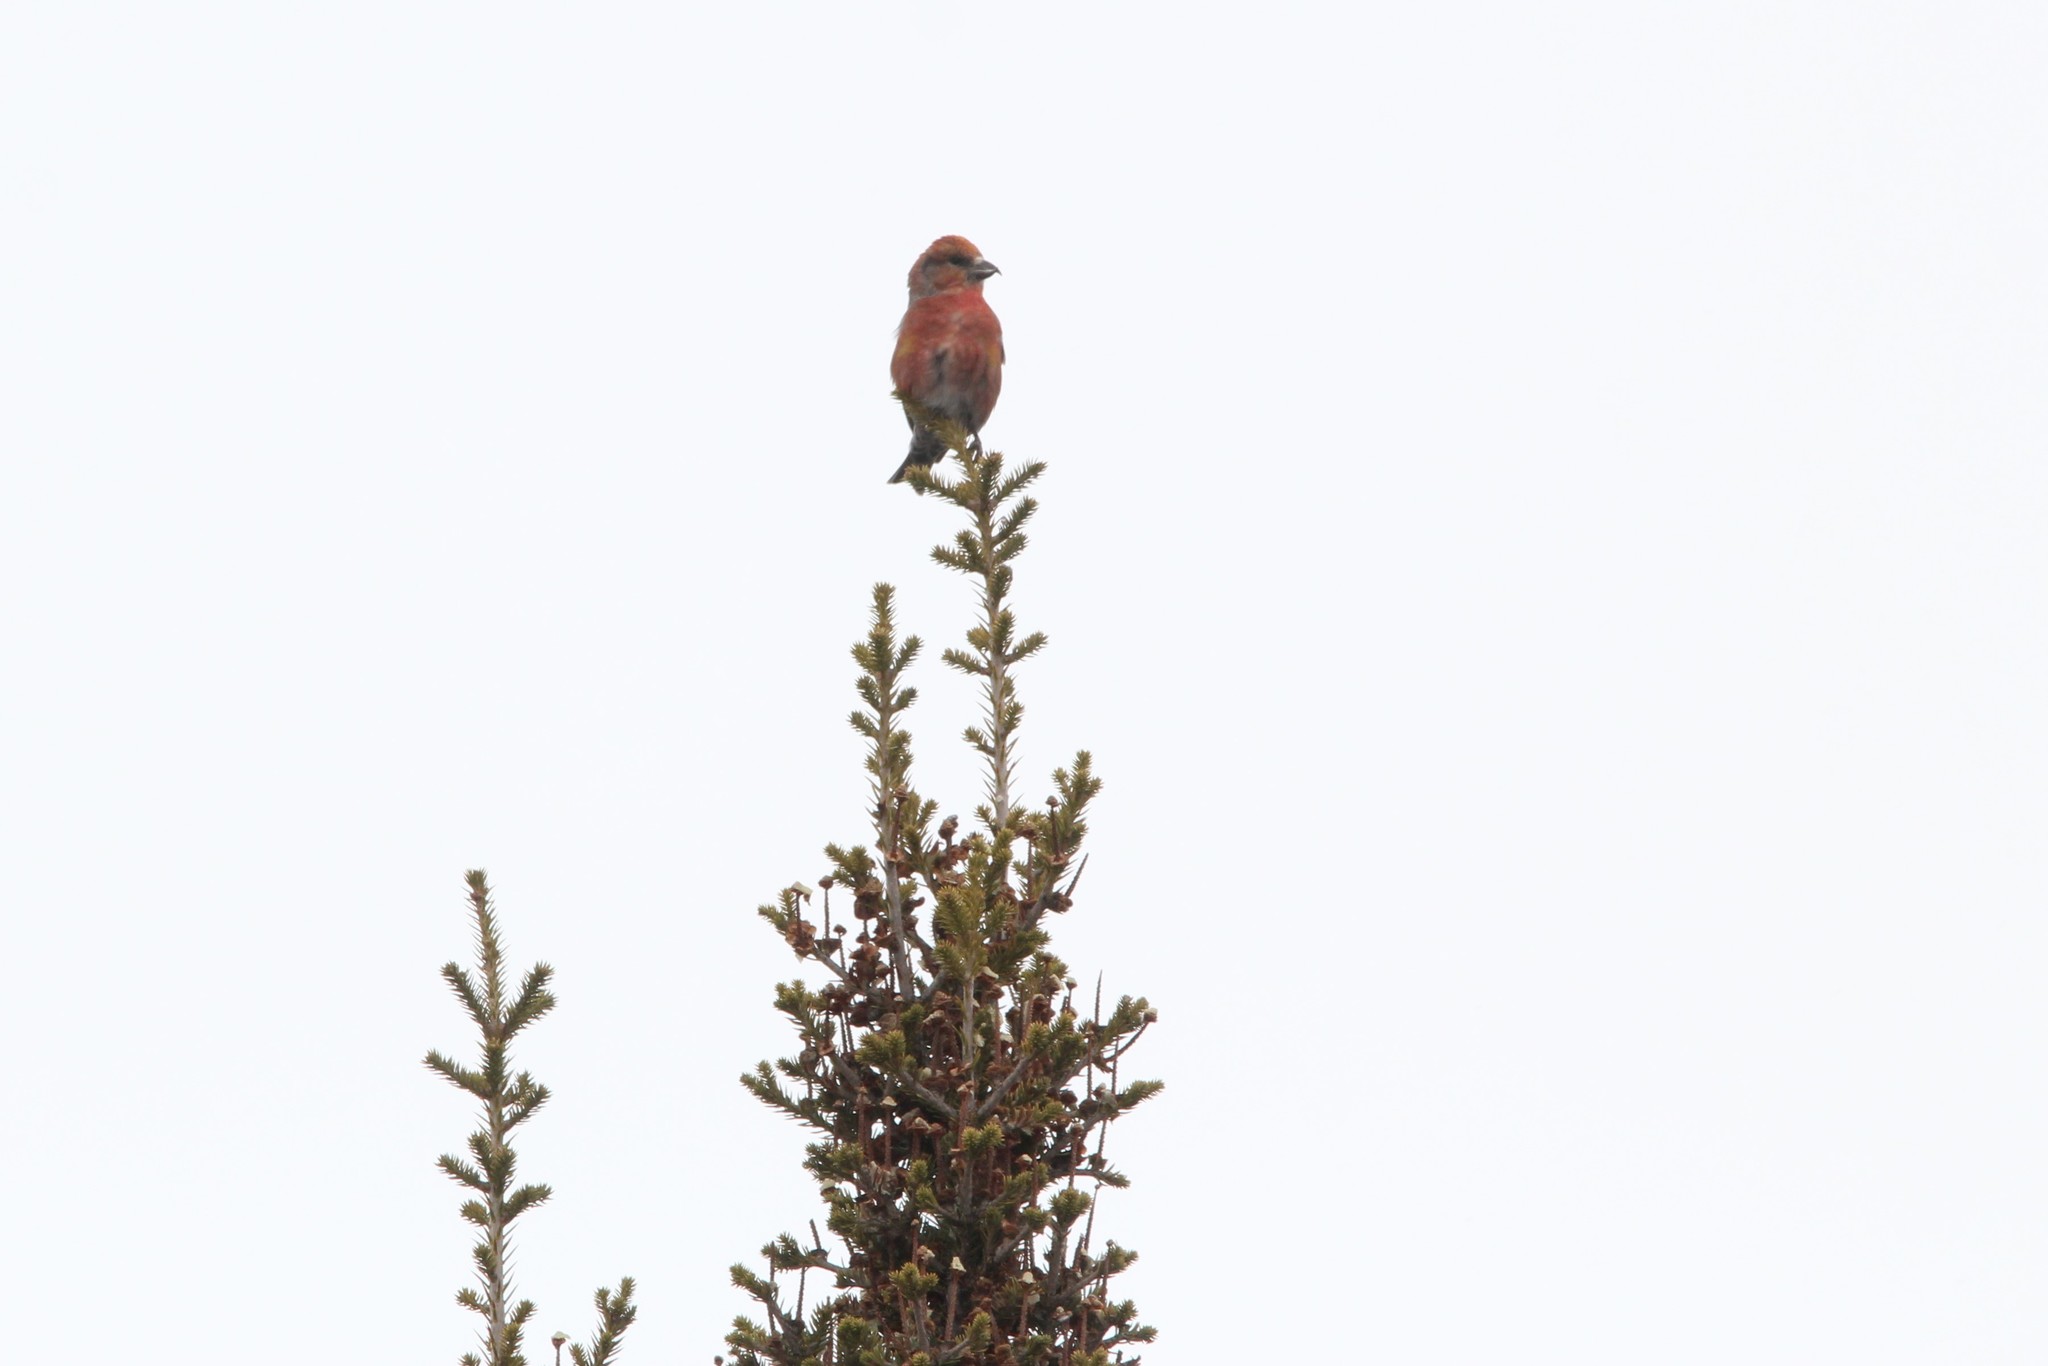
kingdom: Animalia
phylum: Chordata
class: Aves
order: Passeriformes
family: Fringillidae
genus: Loxia
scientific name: Loxia curvirostra
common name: Red crossbill
